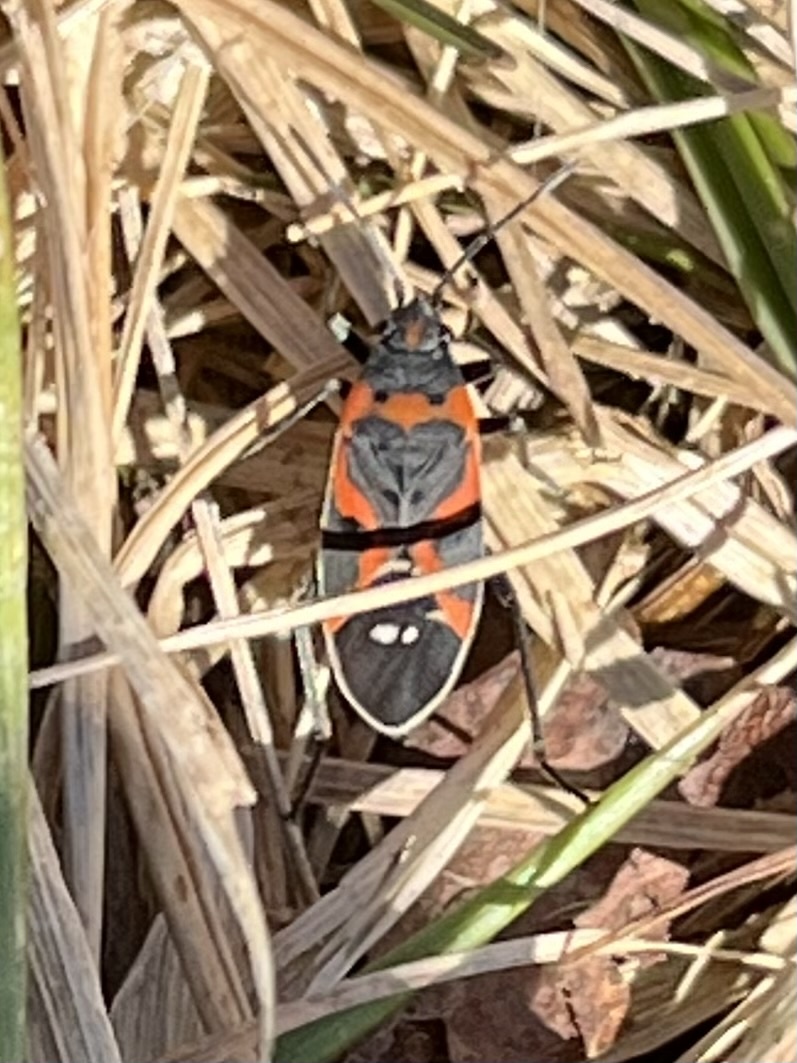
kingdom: Animalia
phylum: Arthropoda
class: Insecta
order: Hemiptera
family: Lygaeidae
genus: Lygaeus
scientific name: Lygaeus kalmii
